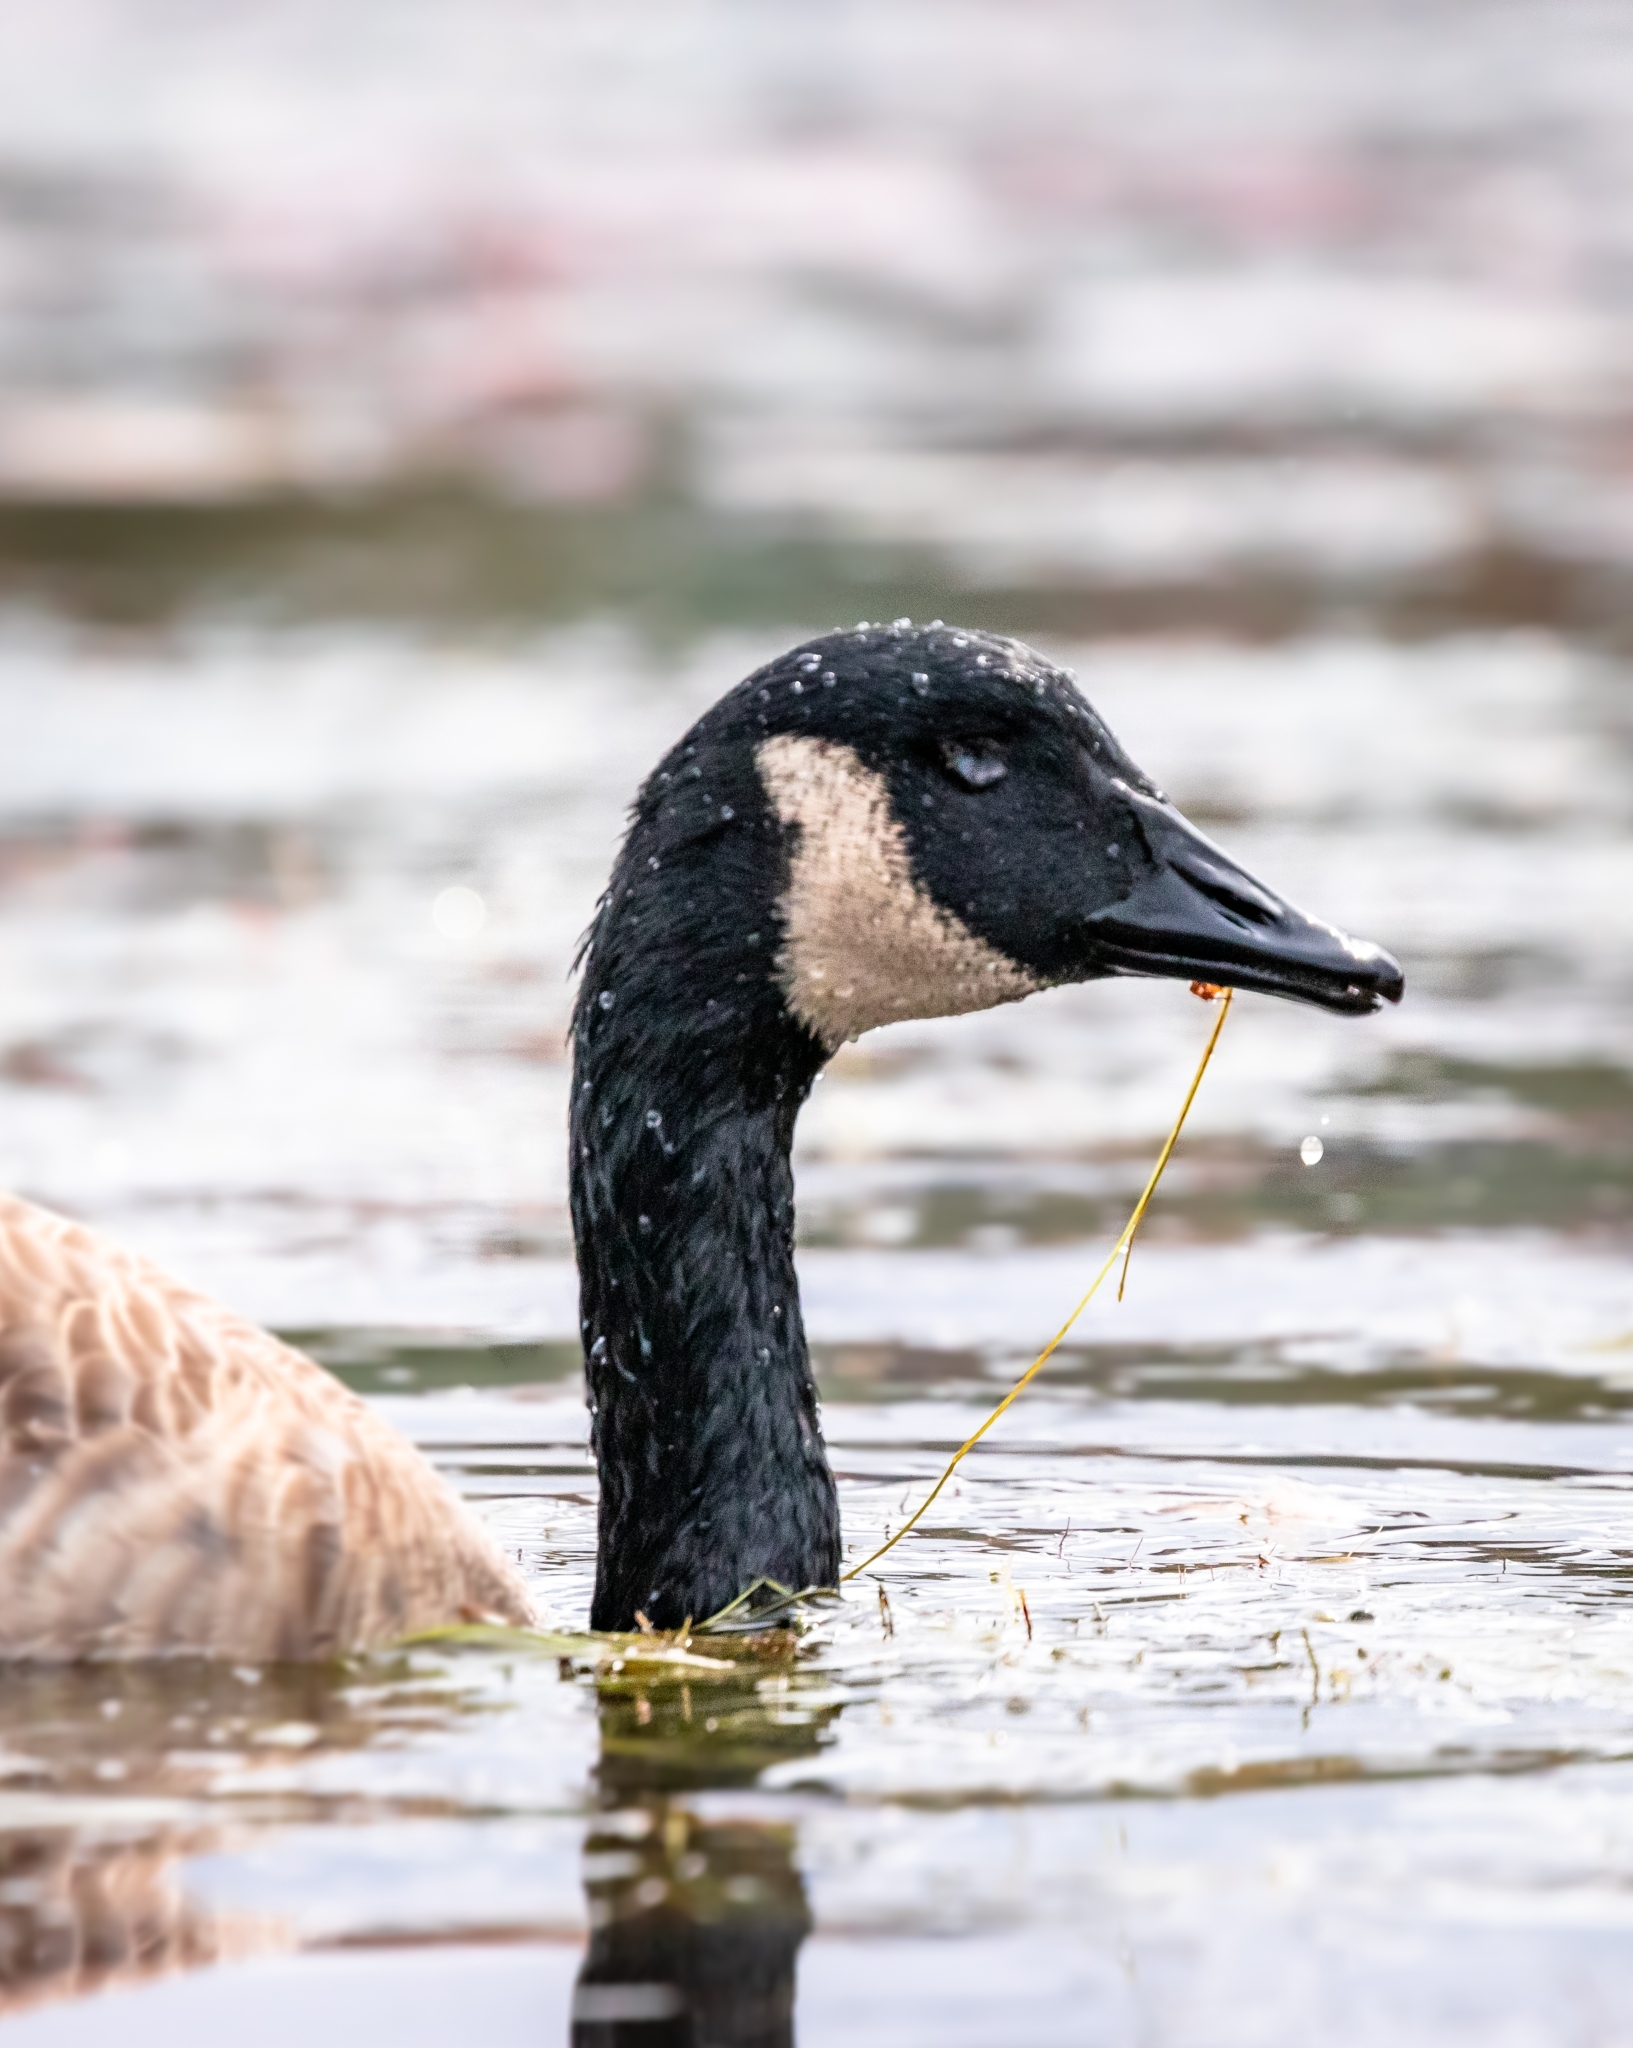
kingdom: Animalia
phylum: Chordata
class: Aves
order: Anseriformes
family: Anatidae
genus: Branta
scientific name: Branta canadensis
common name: Canada goose
